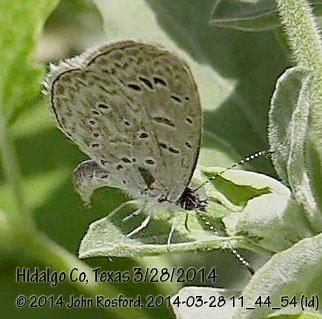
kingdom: Animalia
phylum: Arthropoda
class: Insecta
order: Lepidoptera
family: Lycaenidae
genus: Lycaena
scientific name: Lycaena cyna
